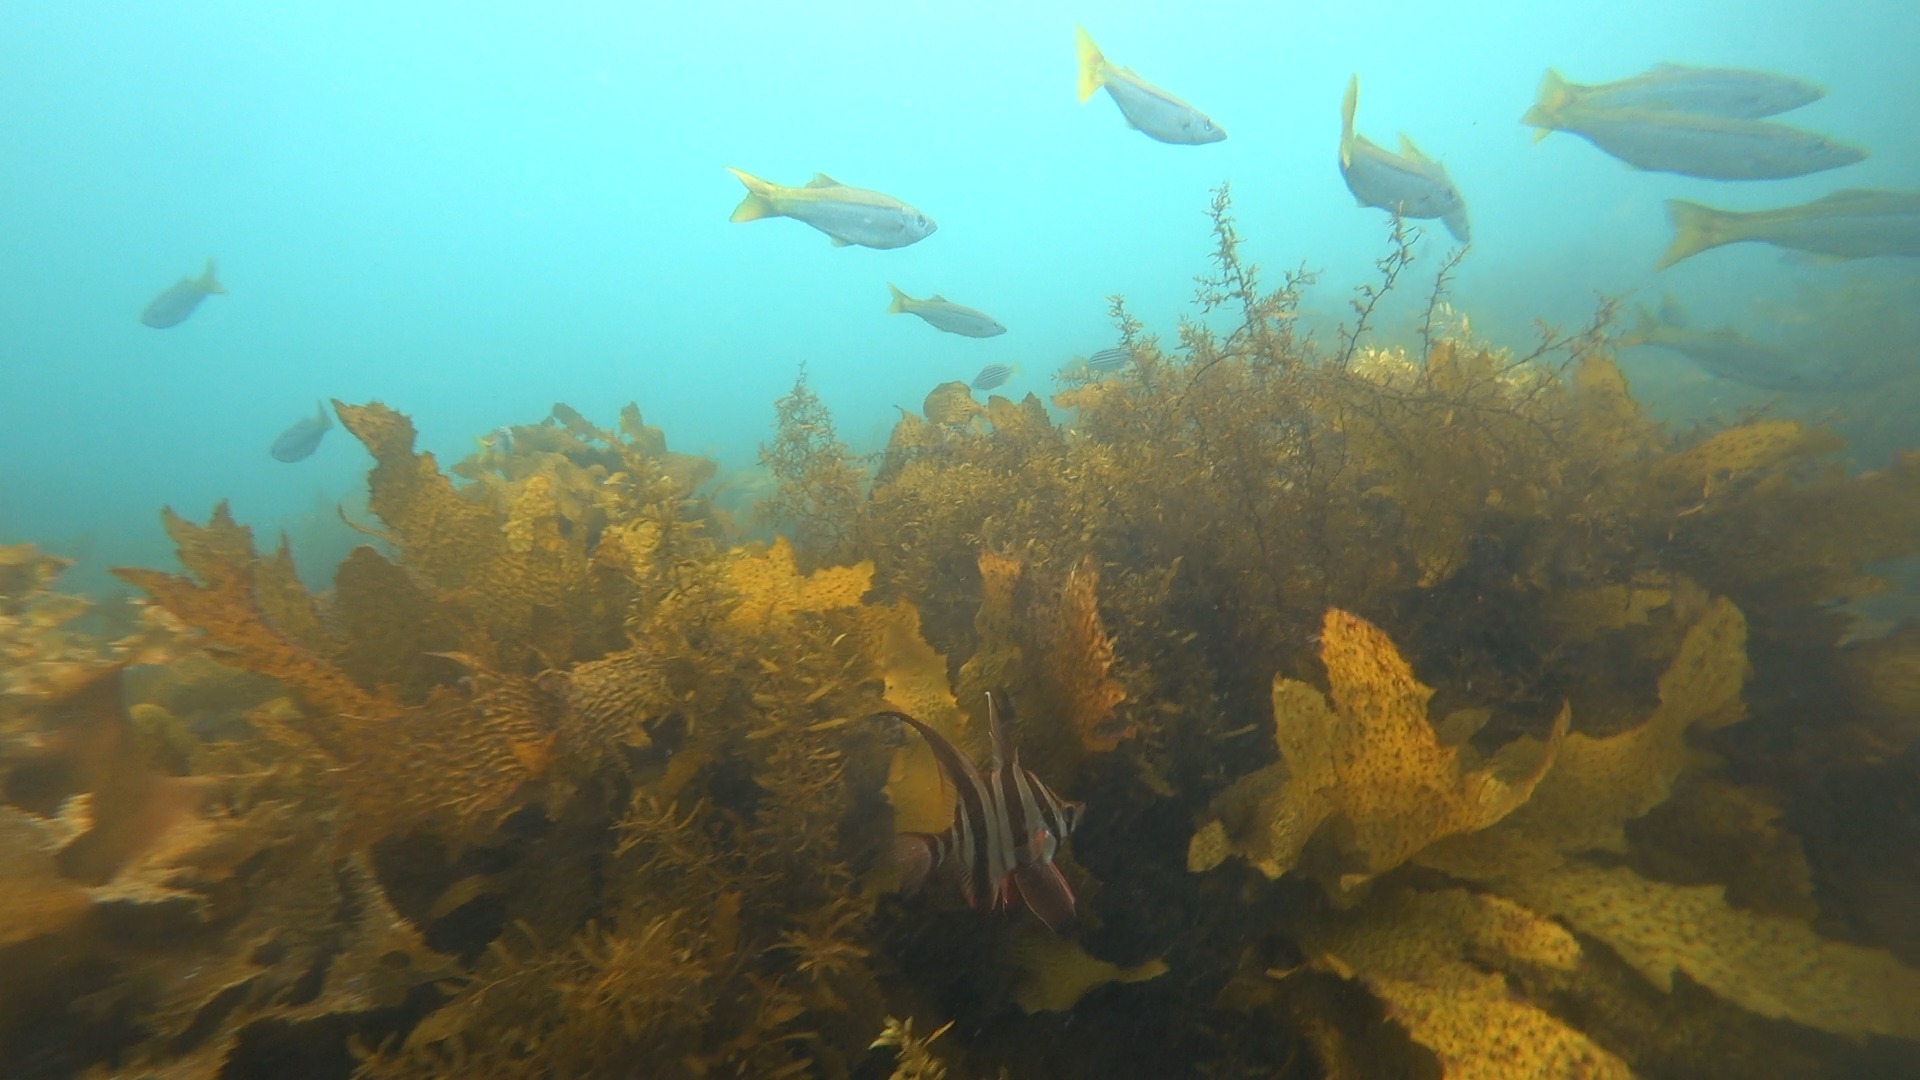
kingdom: Animalia
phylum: Chordata
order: Perciformes
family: Enoplosidae
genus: Enoplosus
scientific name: Enoplosus armatus
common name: Old wife
